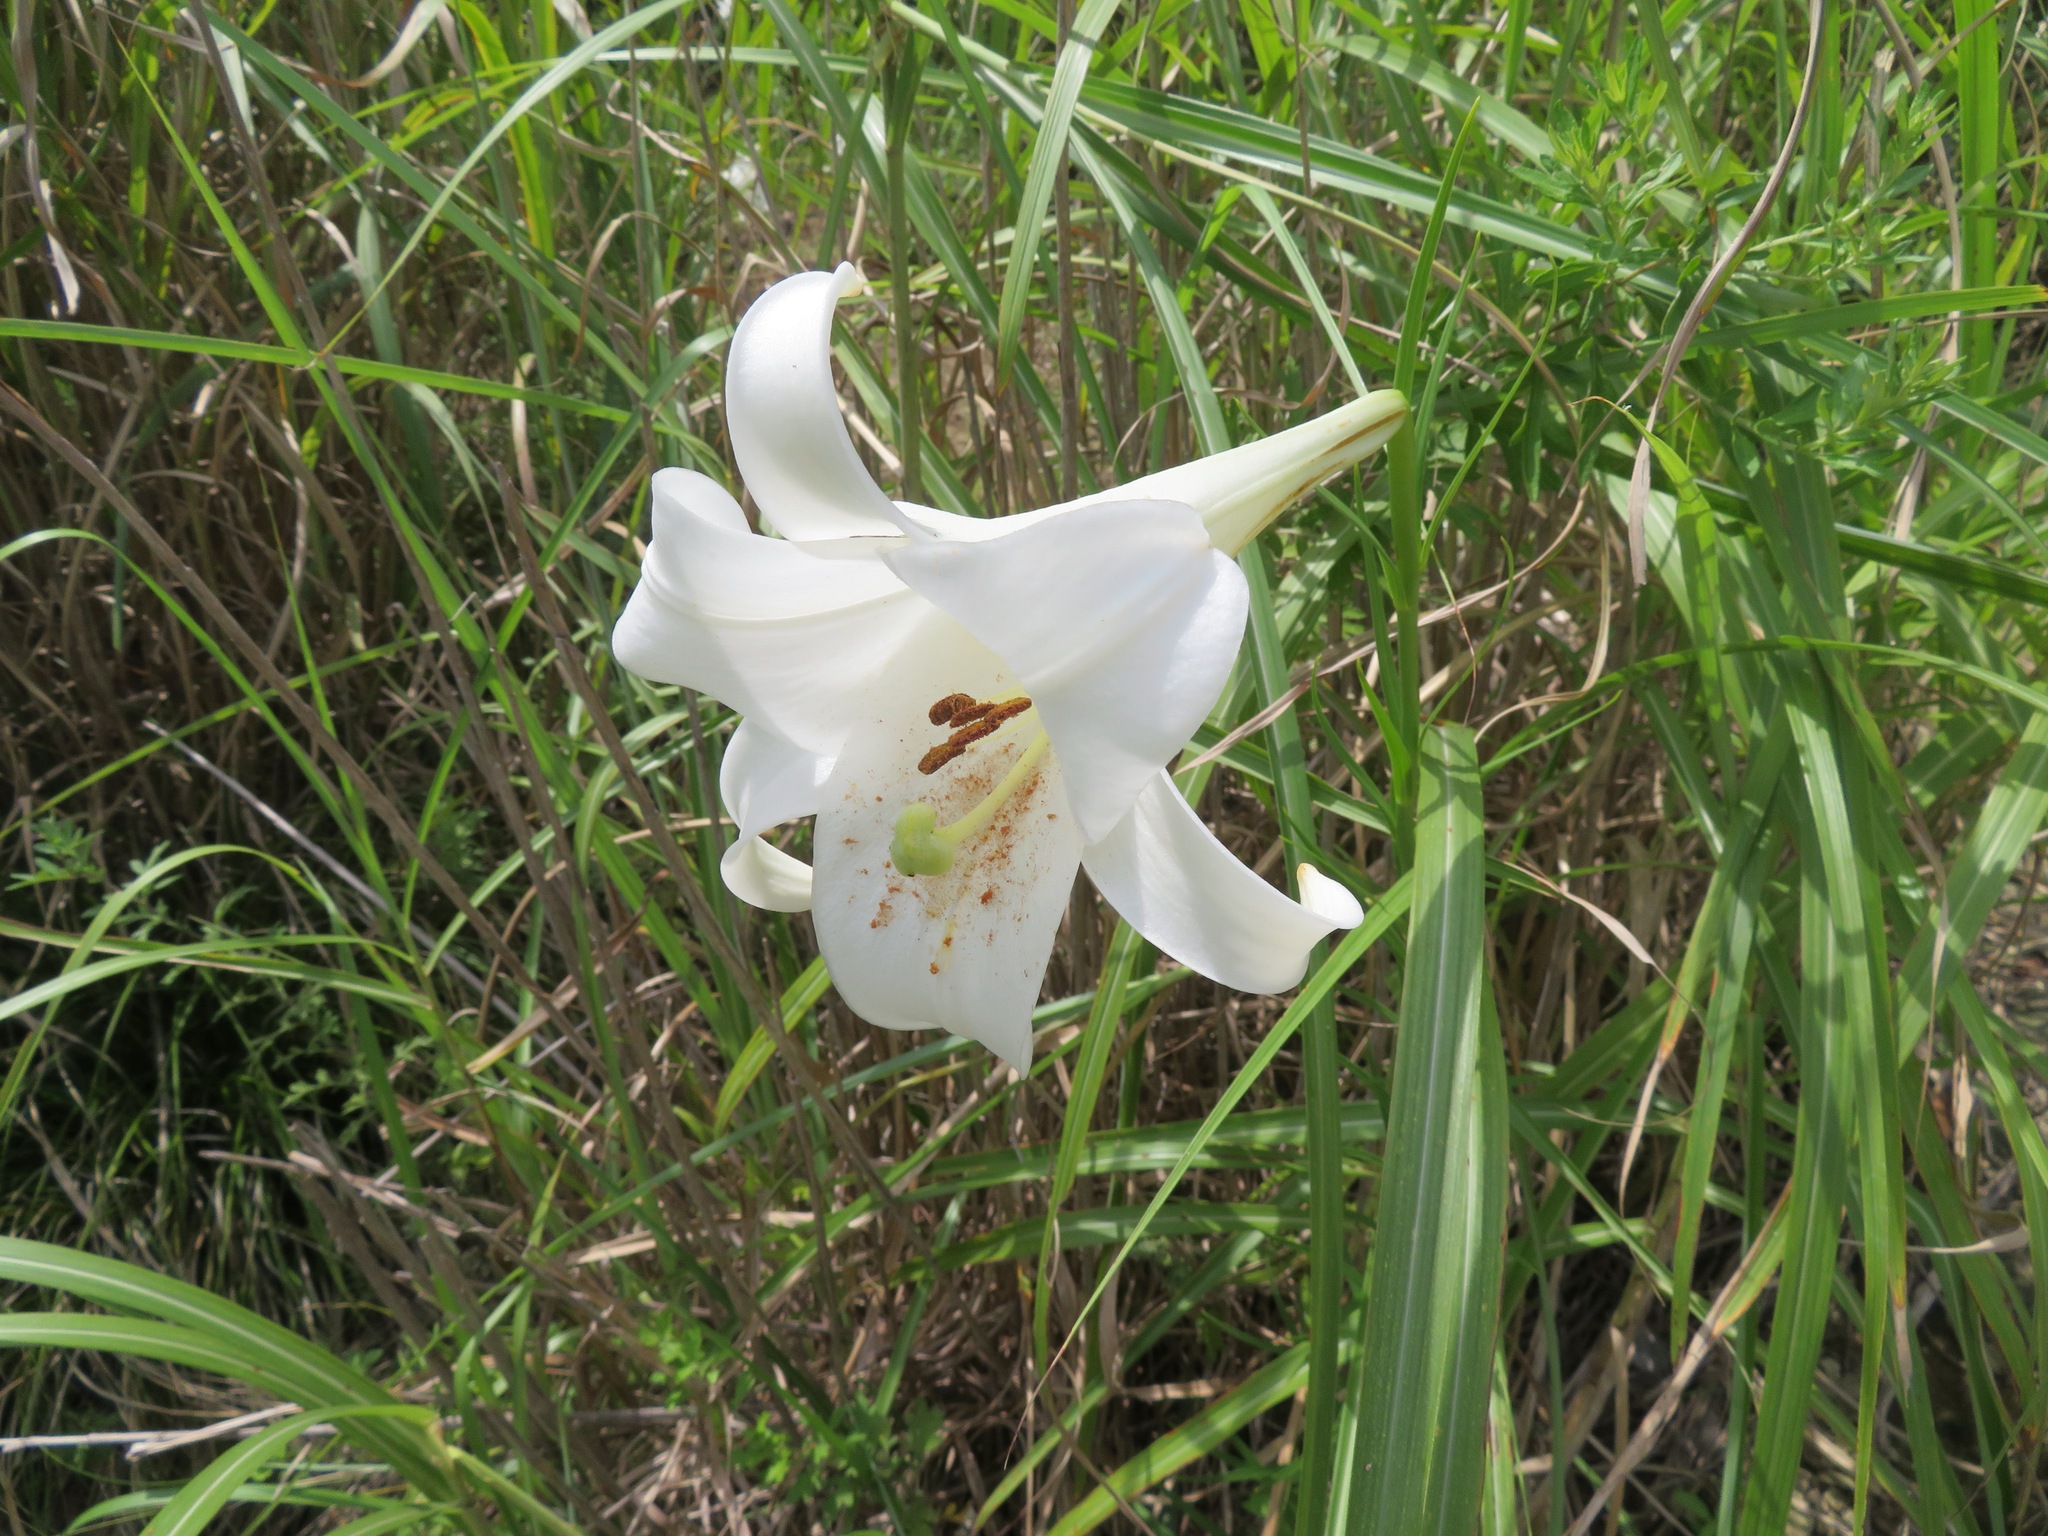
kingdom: Plantae
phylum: Tracheophyta
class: Liliopsida
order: Liliales
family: Liliaceae
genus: Lilium
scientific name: Lilium formosanum
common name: Formosa lily
